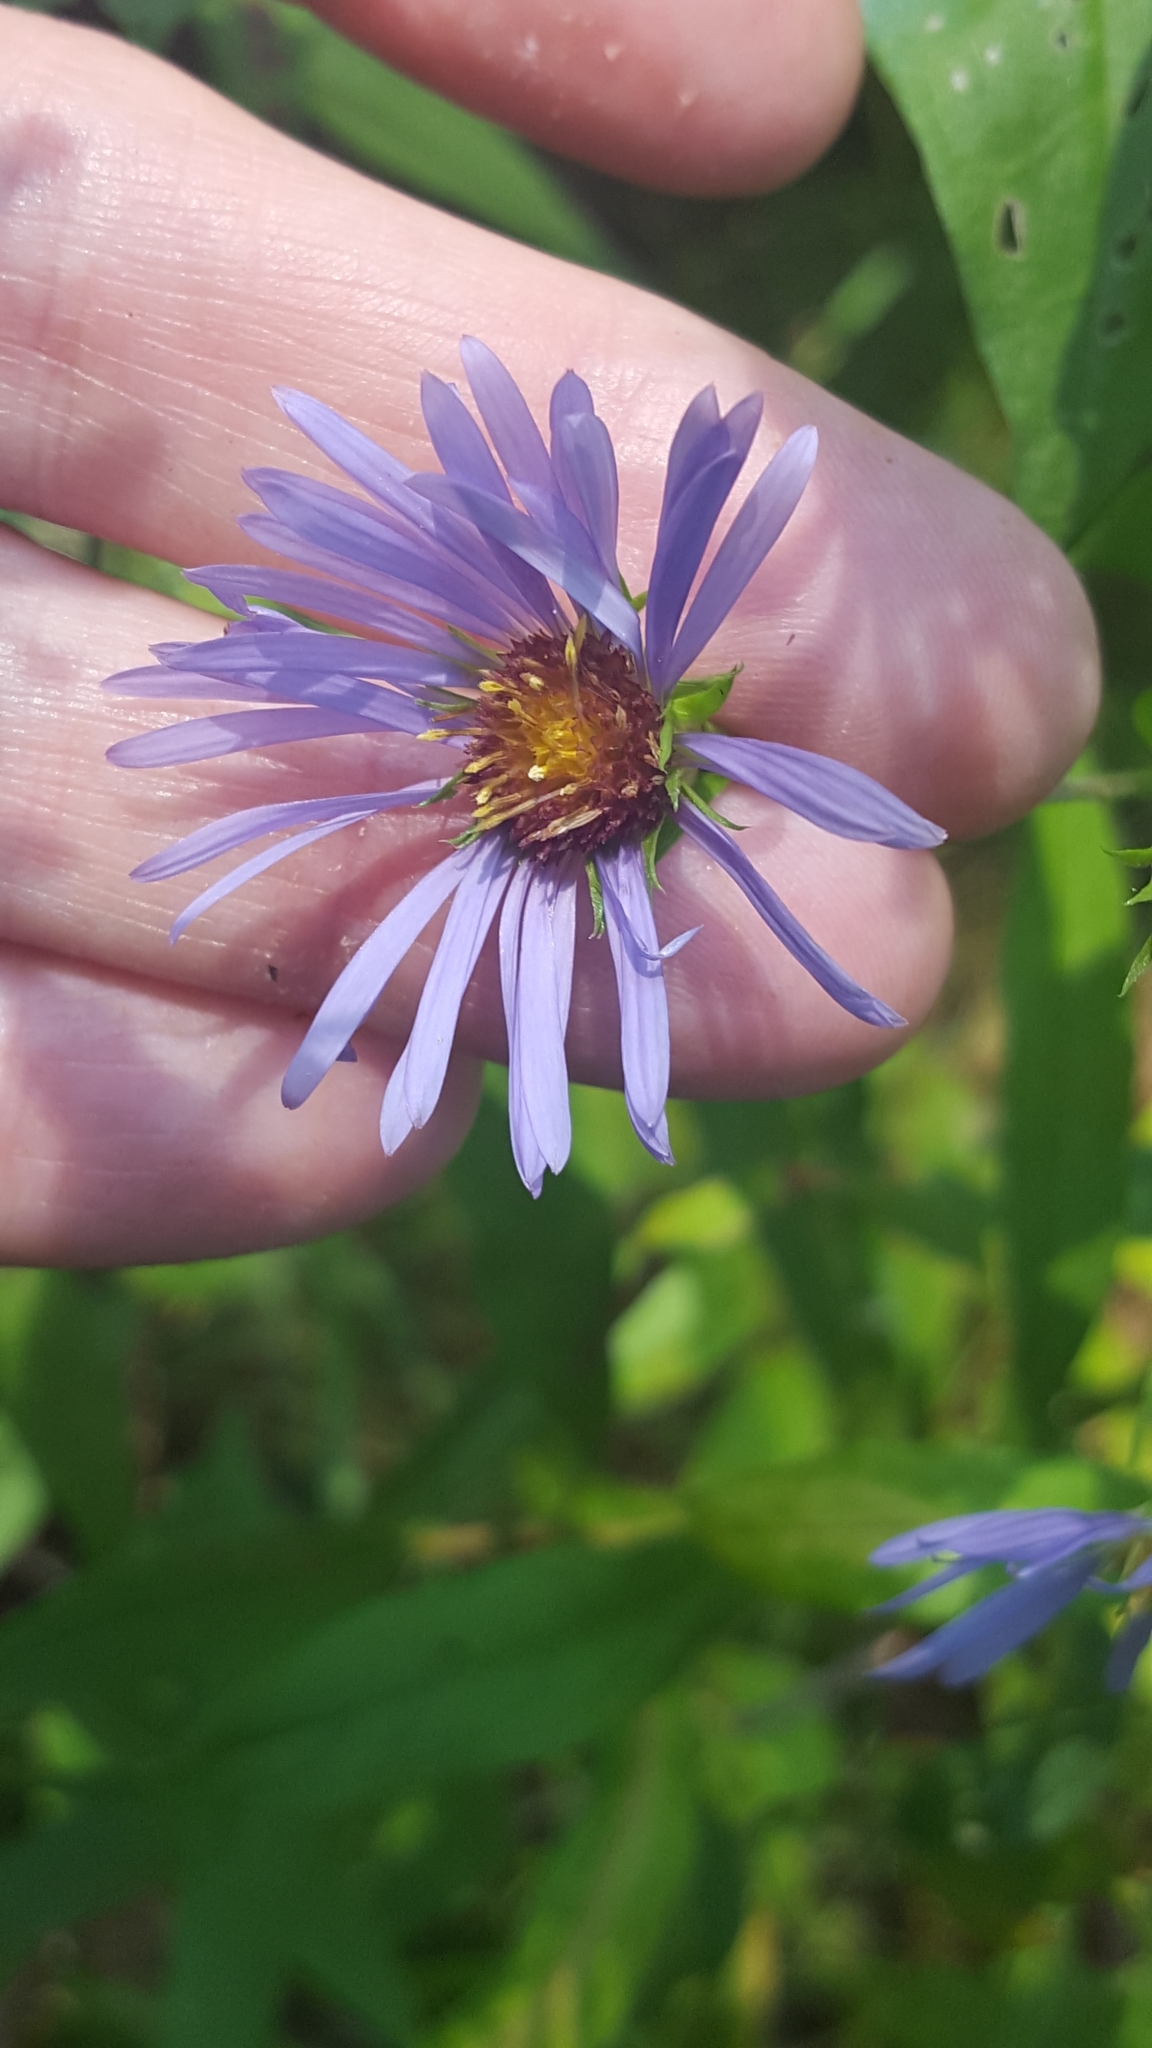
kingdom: Plantae
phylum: Tracheophyta
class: Magnoliopsida
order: Asterales
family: Asteraceae
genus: Symphyotrichum
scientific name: Symphyotrichum puniceum
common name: Bog aster
